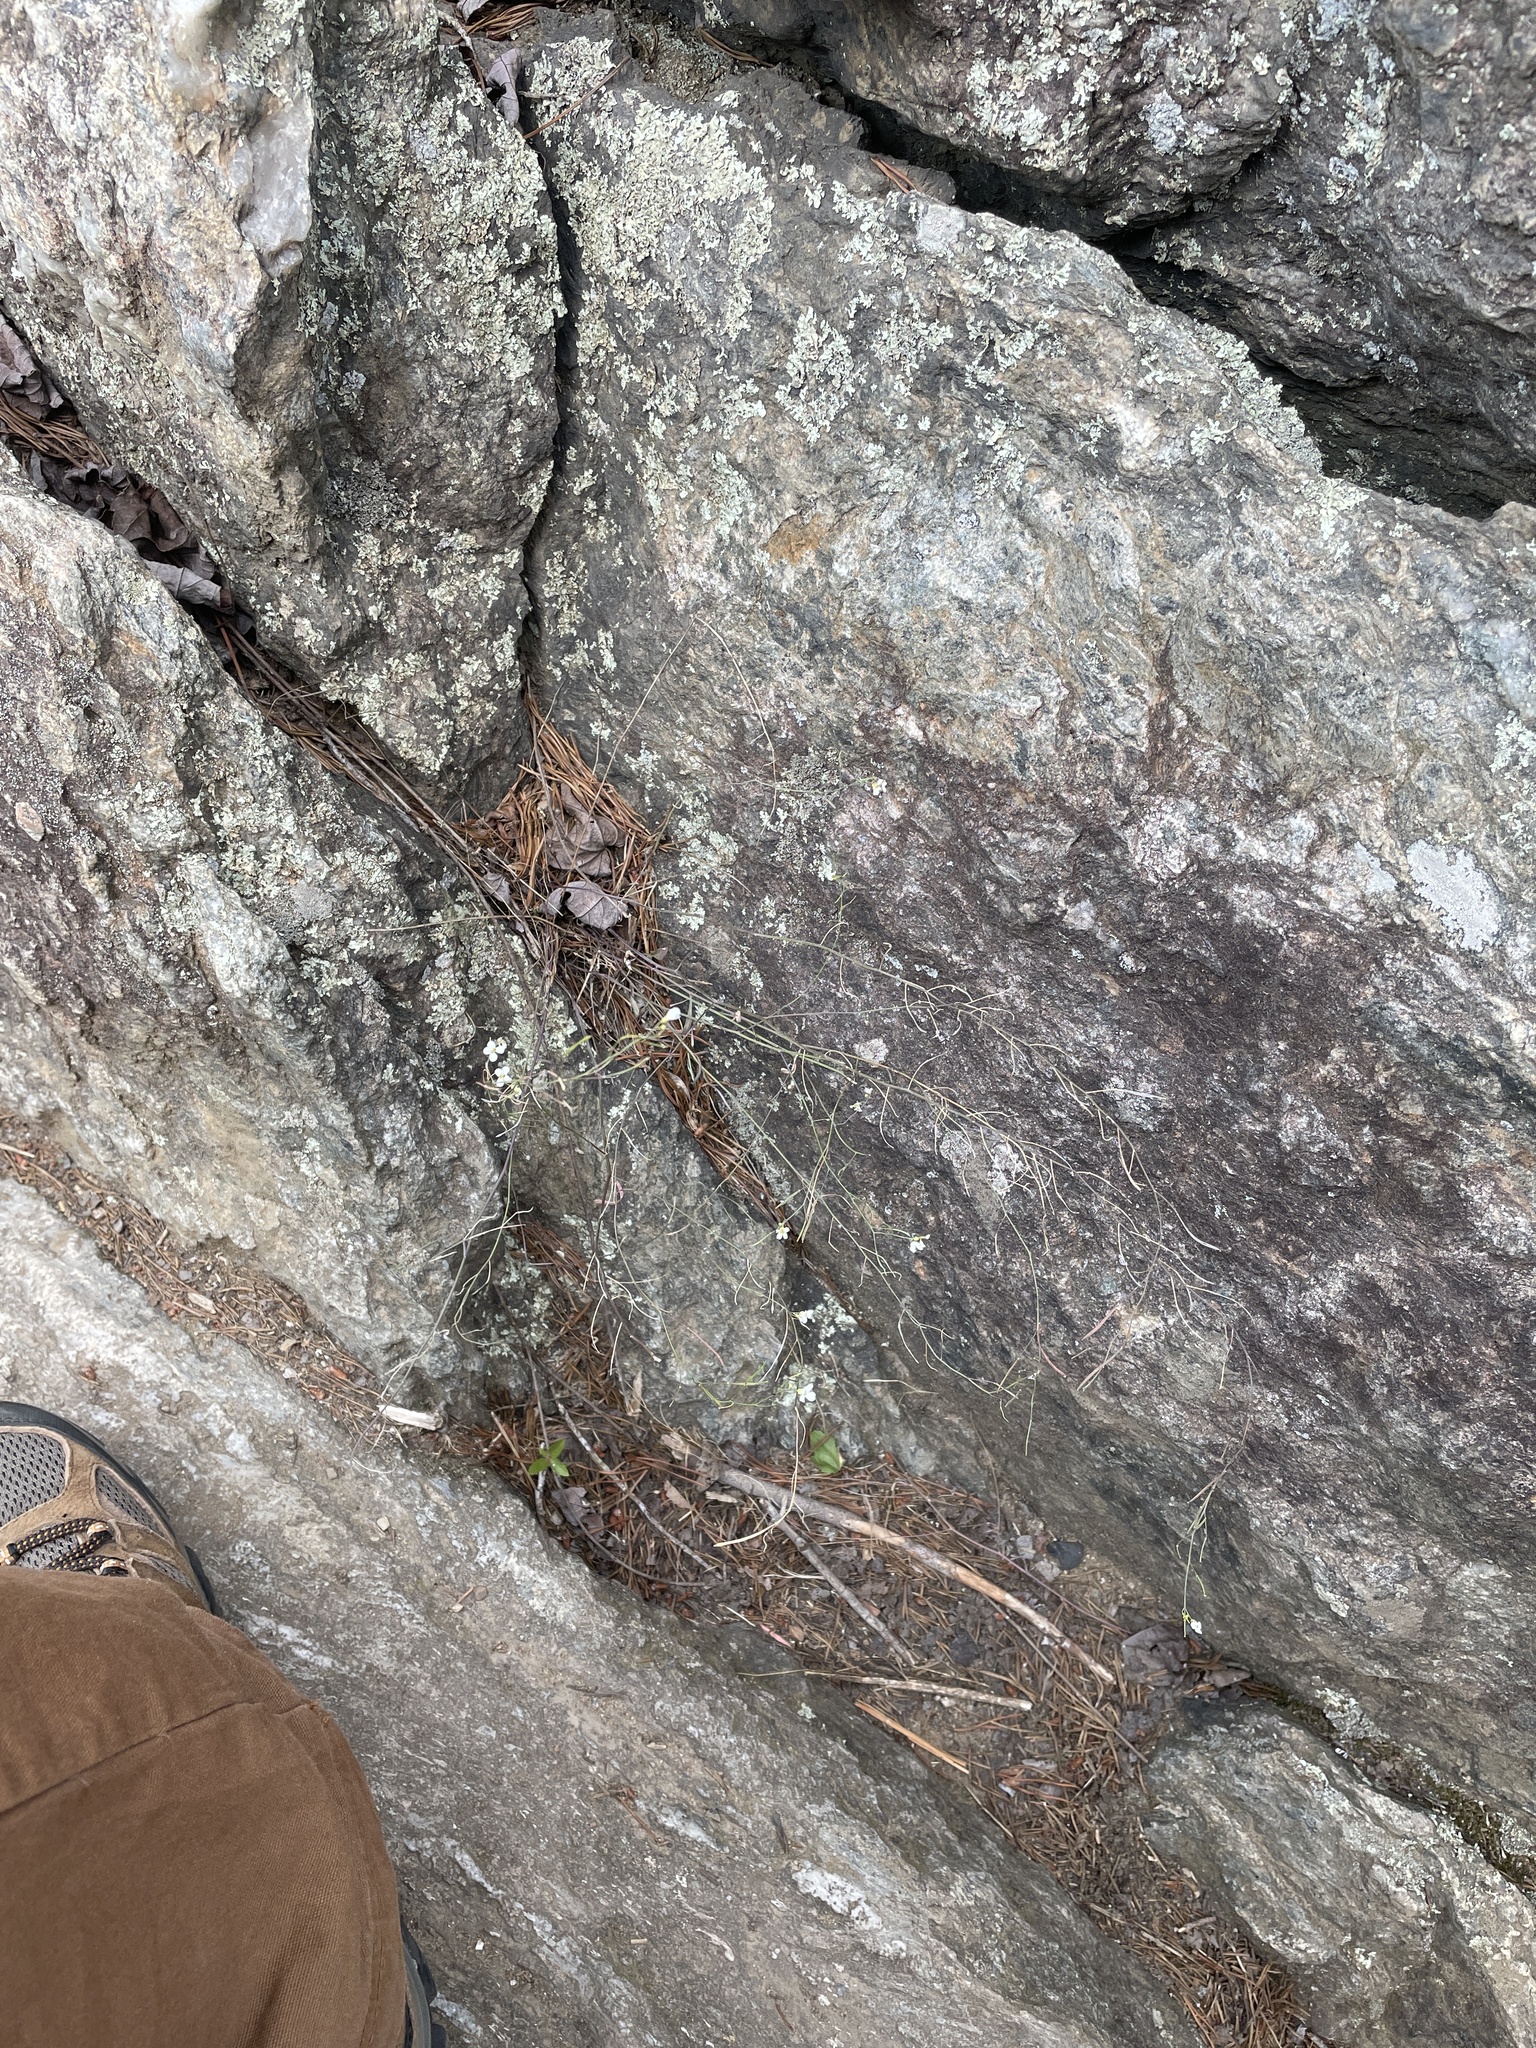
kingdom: Plantae
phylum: Tracheophyta
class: Magnoliopsida
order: Brassicales
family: Brassicaceae
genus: Arabidopsis
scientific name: Arabidopsis thaliana
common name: Thale cress
